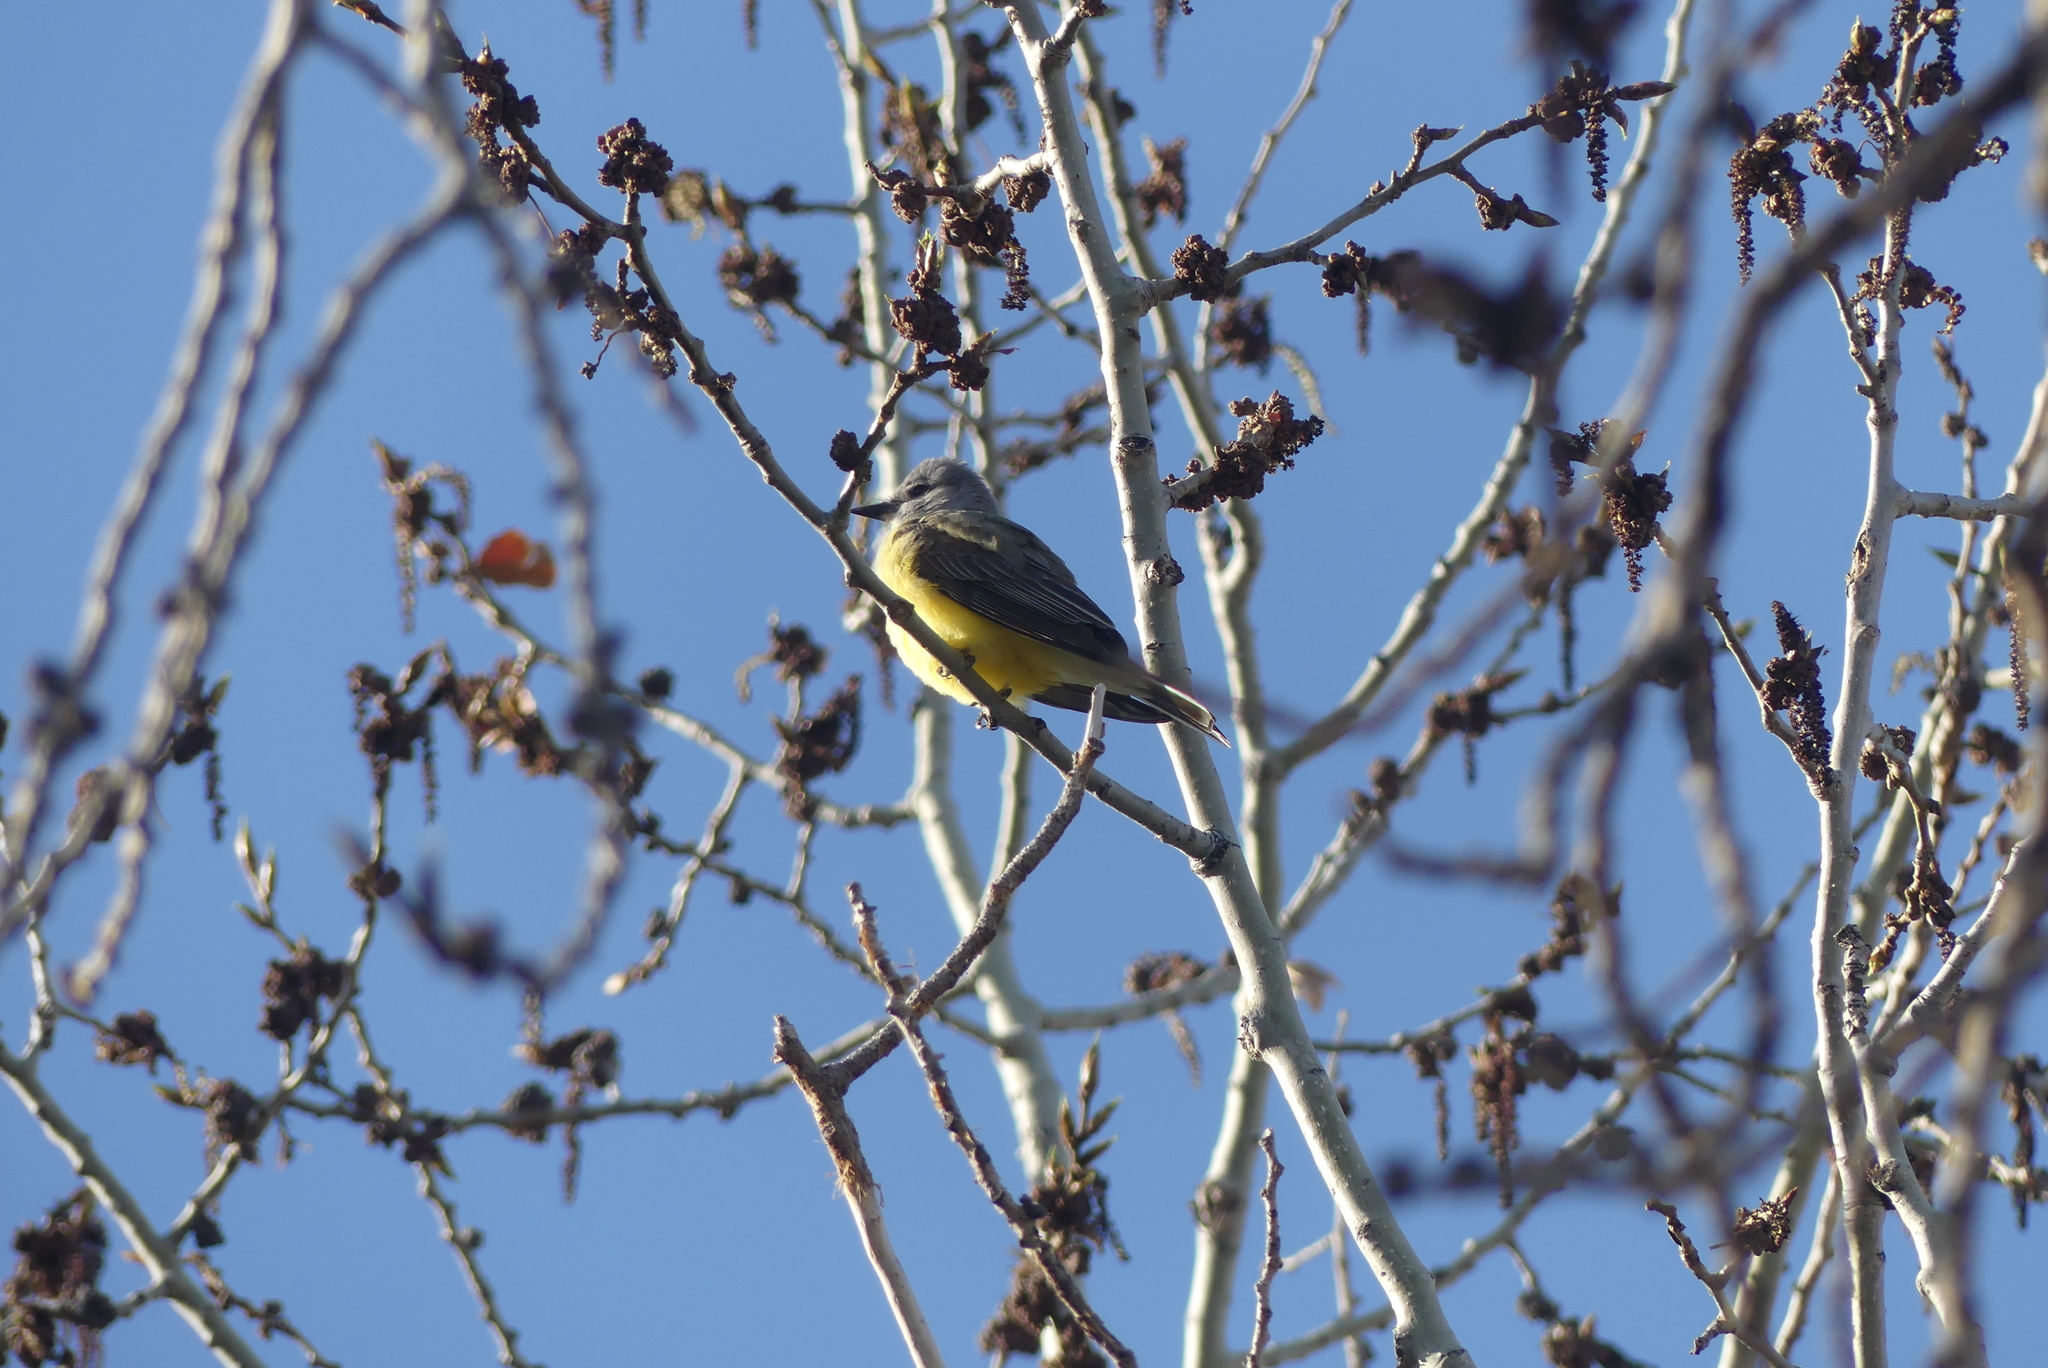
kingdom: Animalia
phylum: Chordata
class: Aves
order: Passeriformes
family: Tyrannidae
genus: Tyrannus
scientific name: Tyrannus verticalis
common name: Western kingbird
